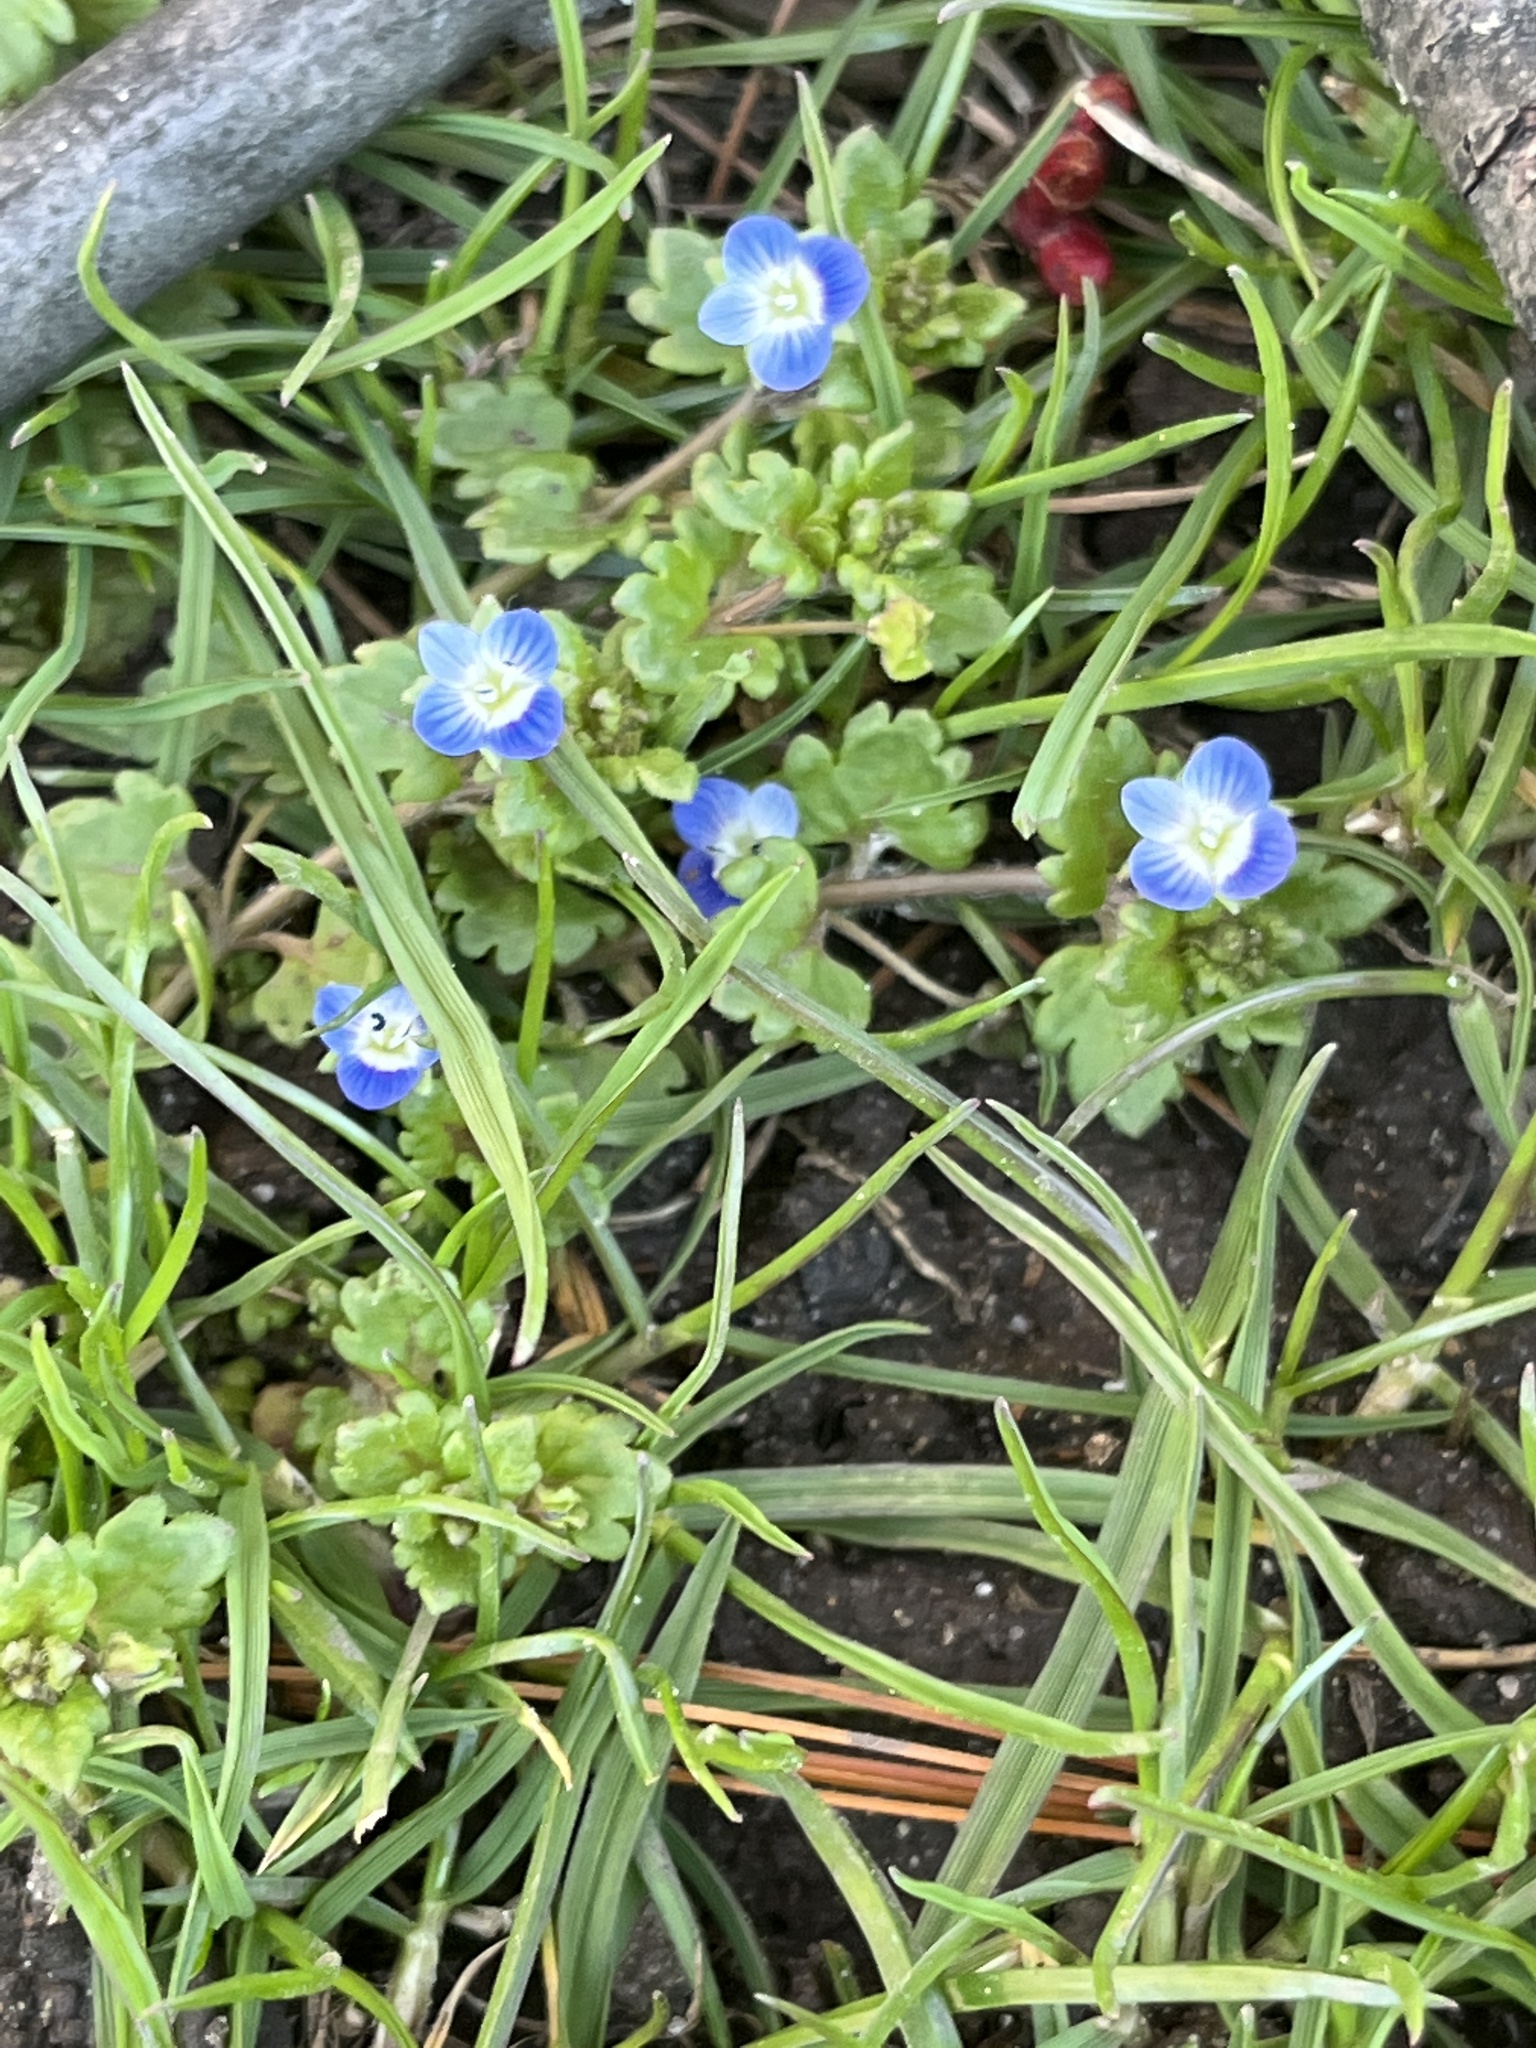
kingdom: Plantae
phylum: Tracheophyta
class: Magnoliopsida
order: Lamiales
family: Plantaginaceae
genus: Veronica
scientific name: Veronica polita
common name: Grey field-speedwell
